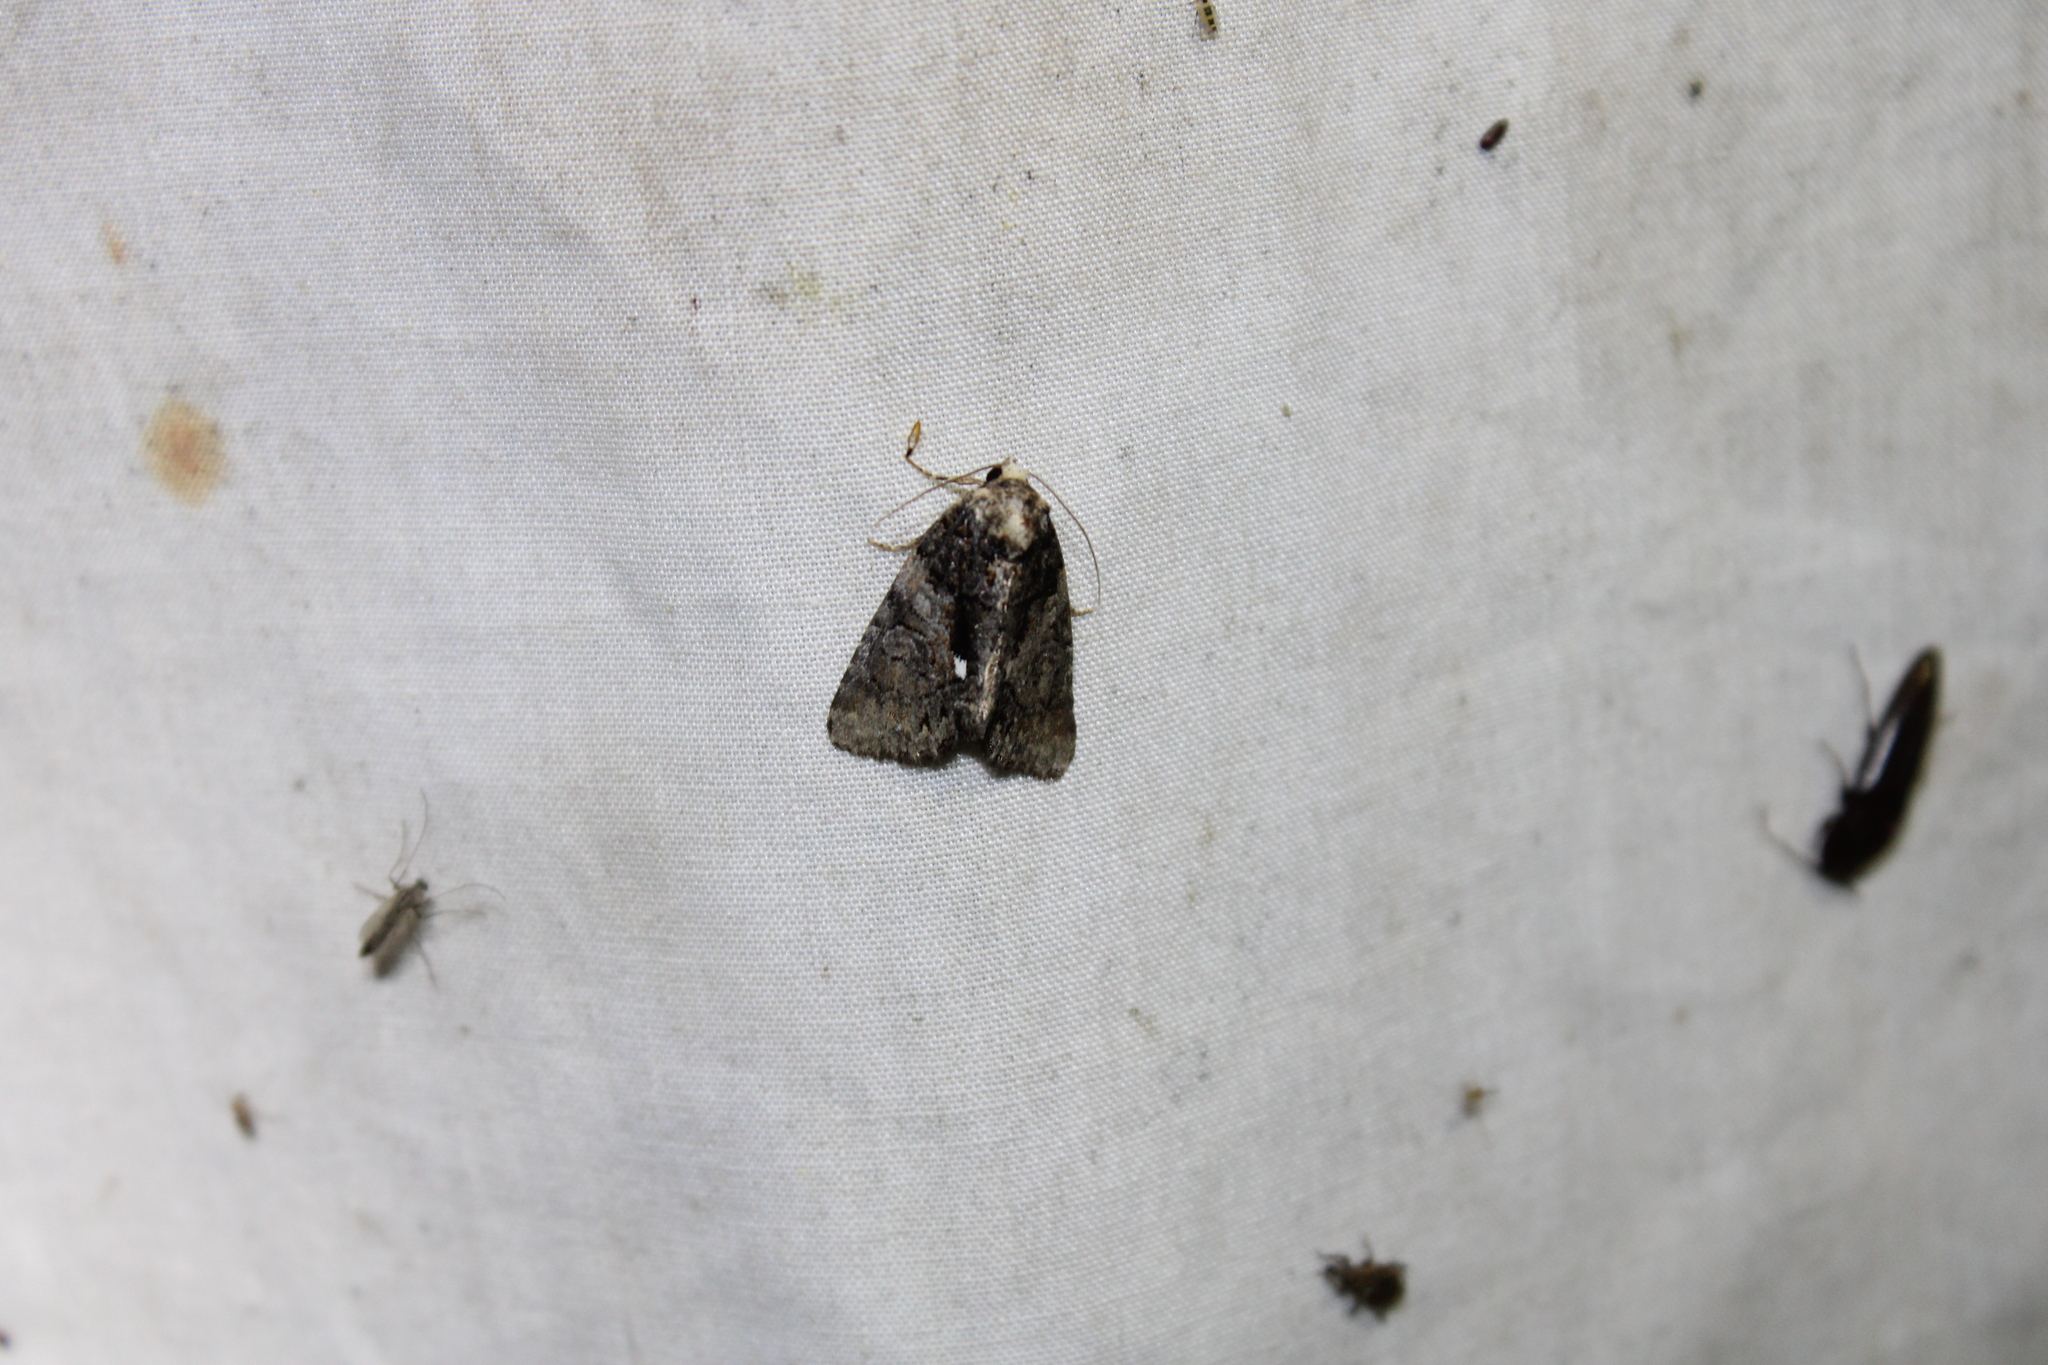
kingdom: Animalia
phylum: Arthropoda
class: Insecta
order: Lepidoptera
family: Noctuidae
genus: Chytonix
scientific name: Chytonix palliatricula
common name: Cloaked marvel
